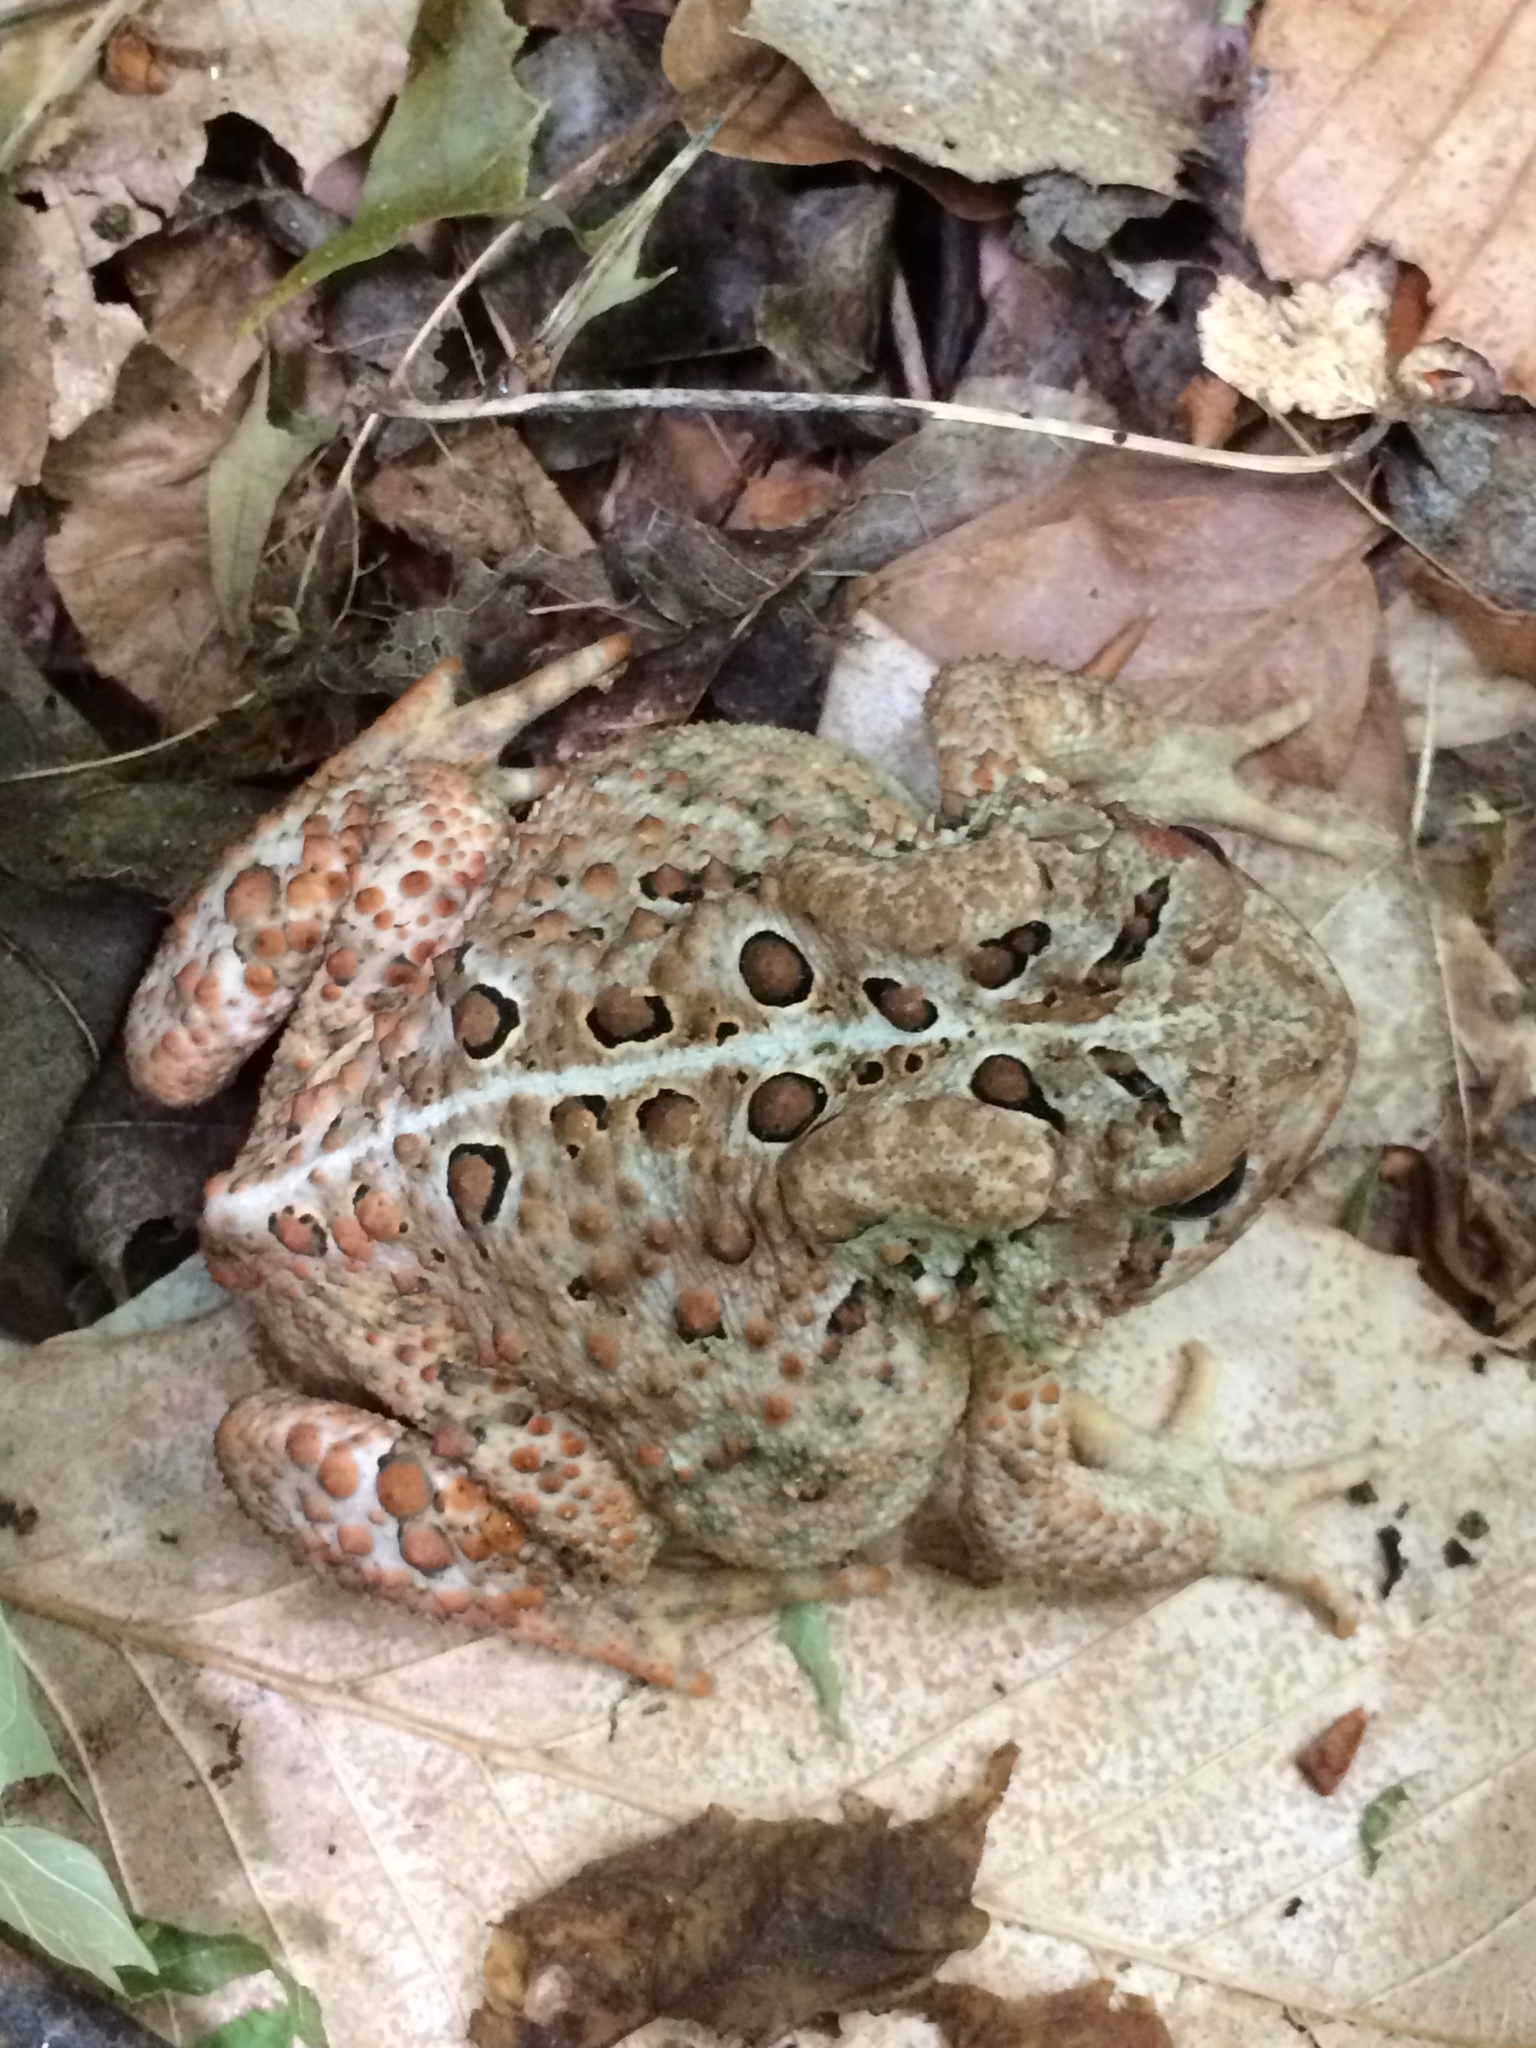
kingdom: Animalia
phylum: Chordata
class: Amphibia
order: Anura
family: Bufonidae
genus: Anaxyrus
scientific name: Anaxyrus americanus
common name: American toad
